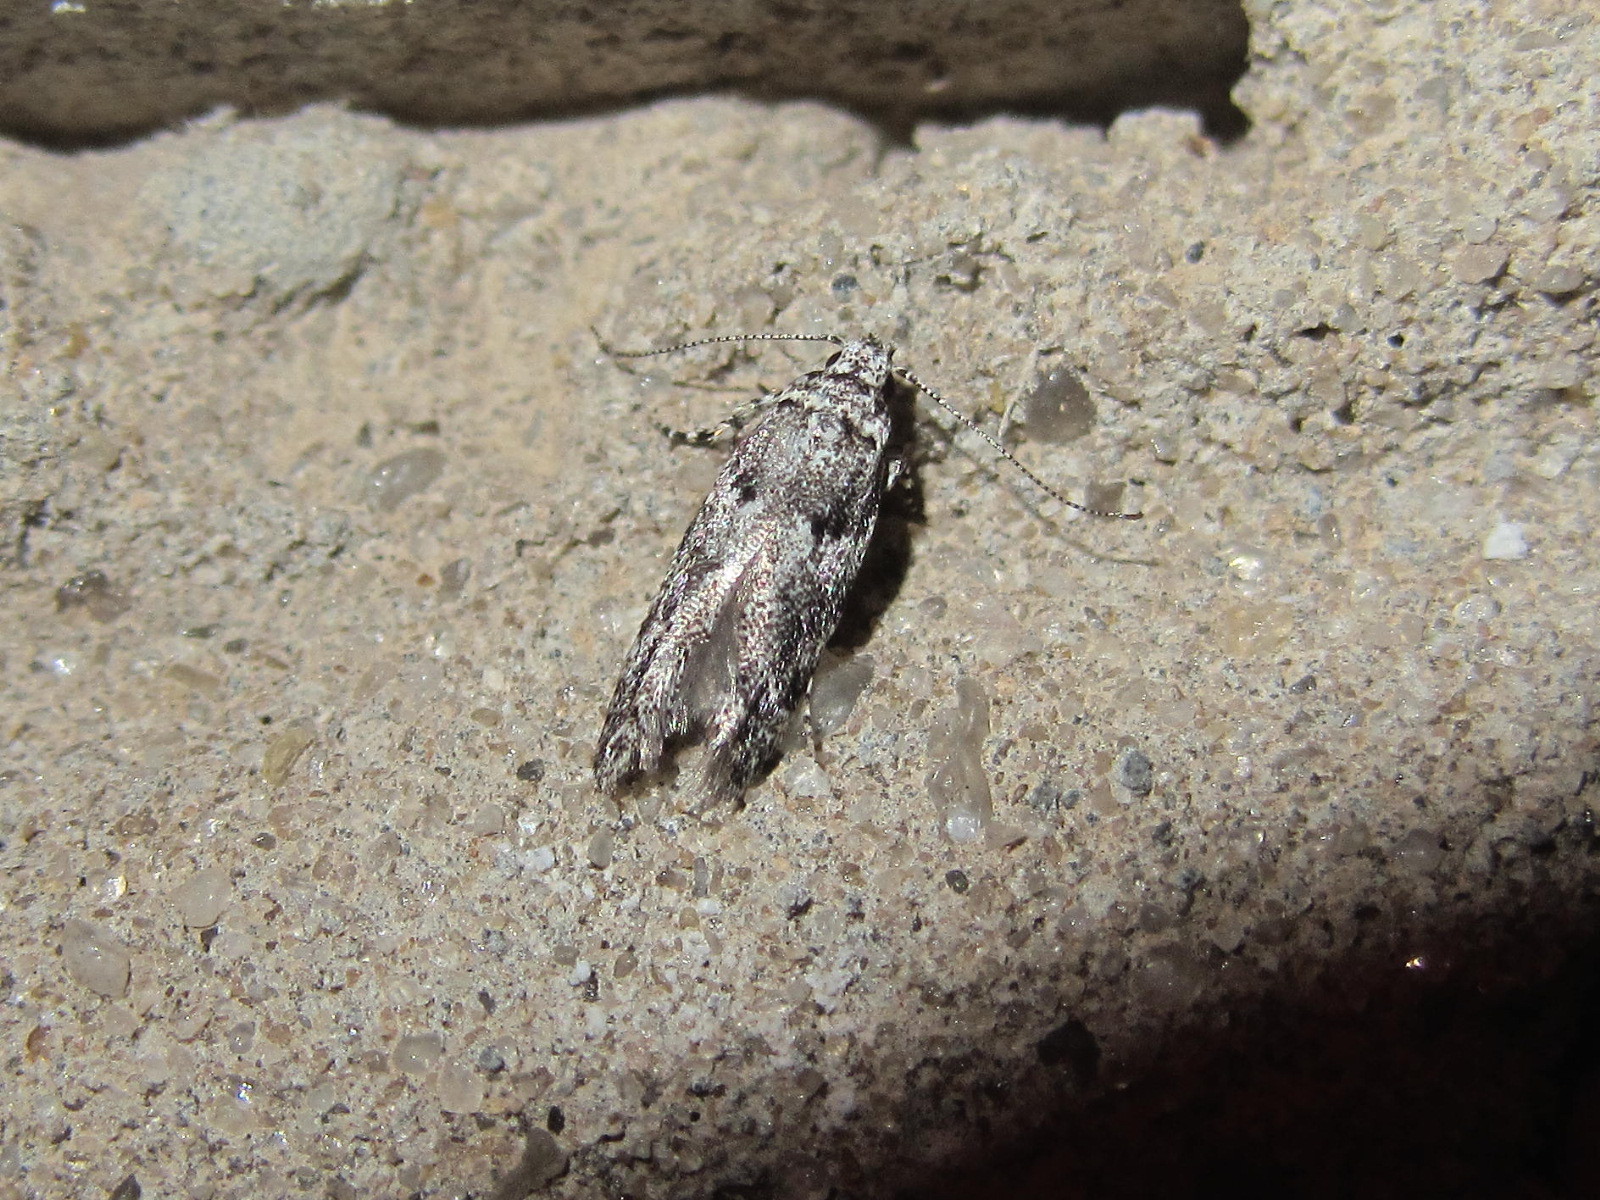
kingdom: Animalia
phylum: Arthropoda
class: Insecta
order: Lepidoptera
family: Gelechiidae
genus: Recurvaria
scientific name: Recurvaria nanella
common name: Gelechiid moth
